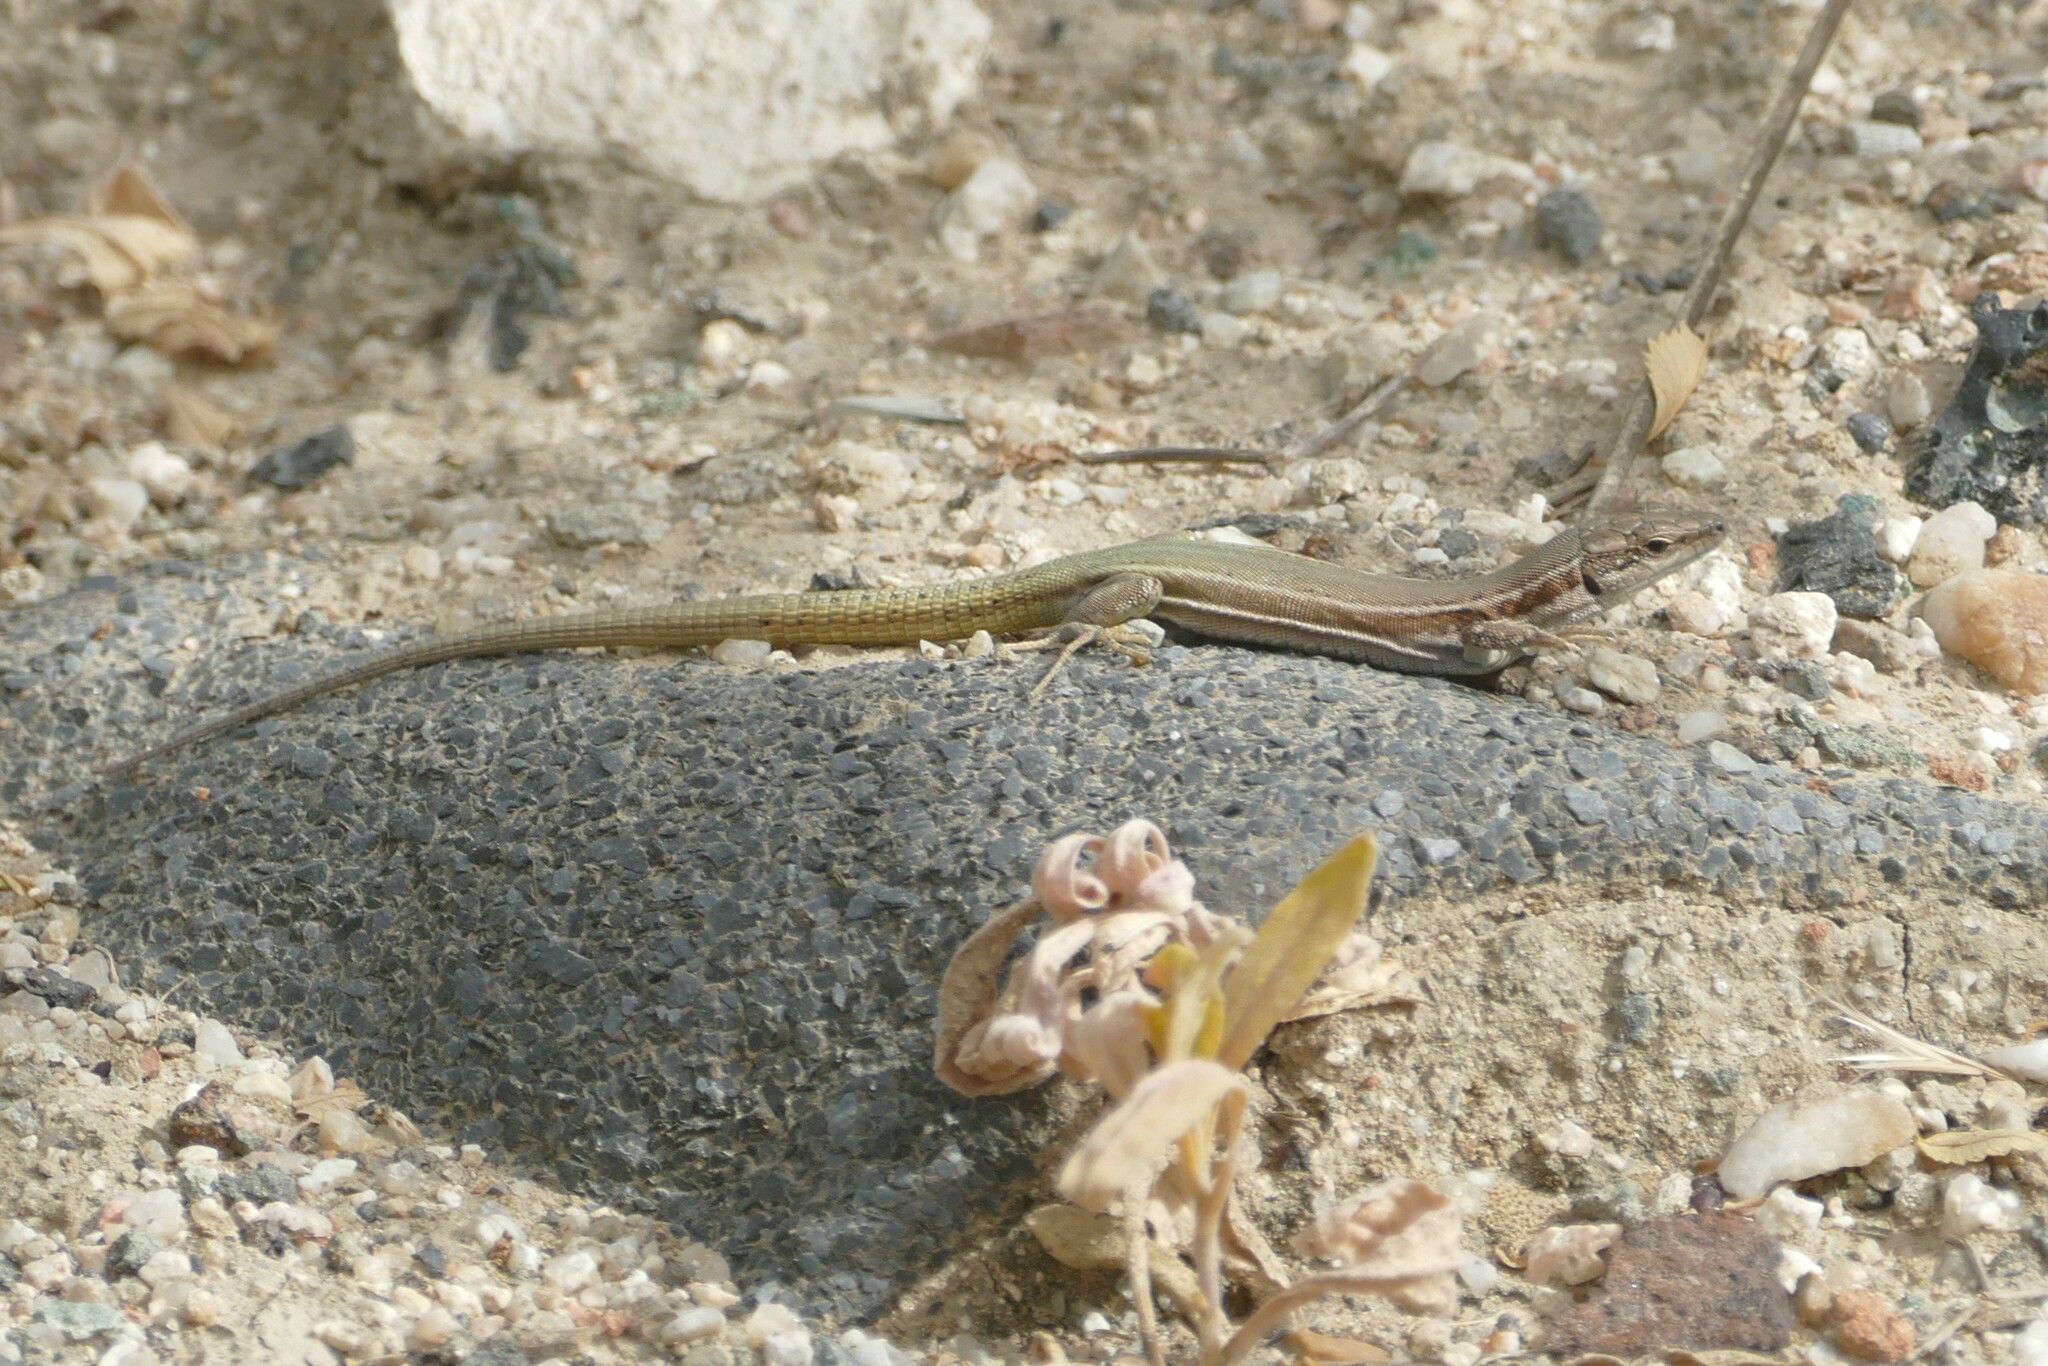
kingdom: Animalia
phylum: Chordata
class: Squamata
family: Lacertidae
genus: Podarcis
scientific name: Podarcis virescens
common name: Geniez’s wall lizard
